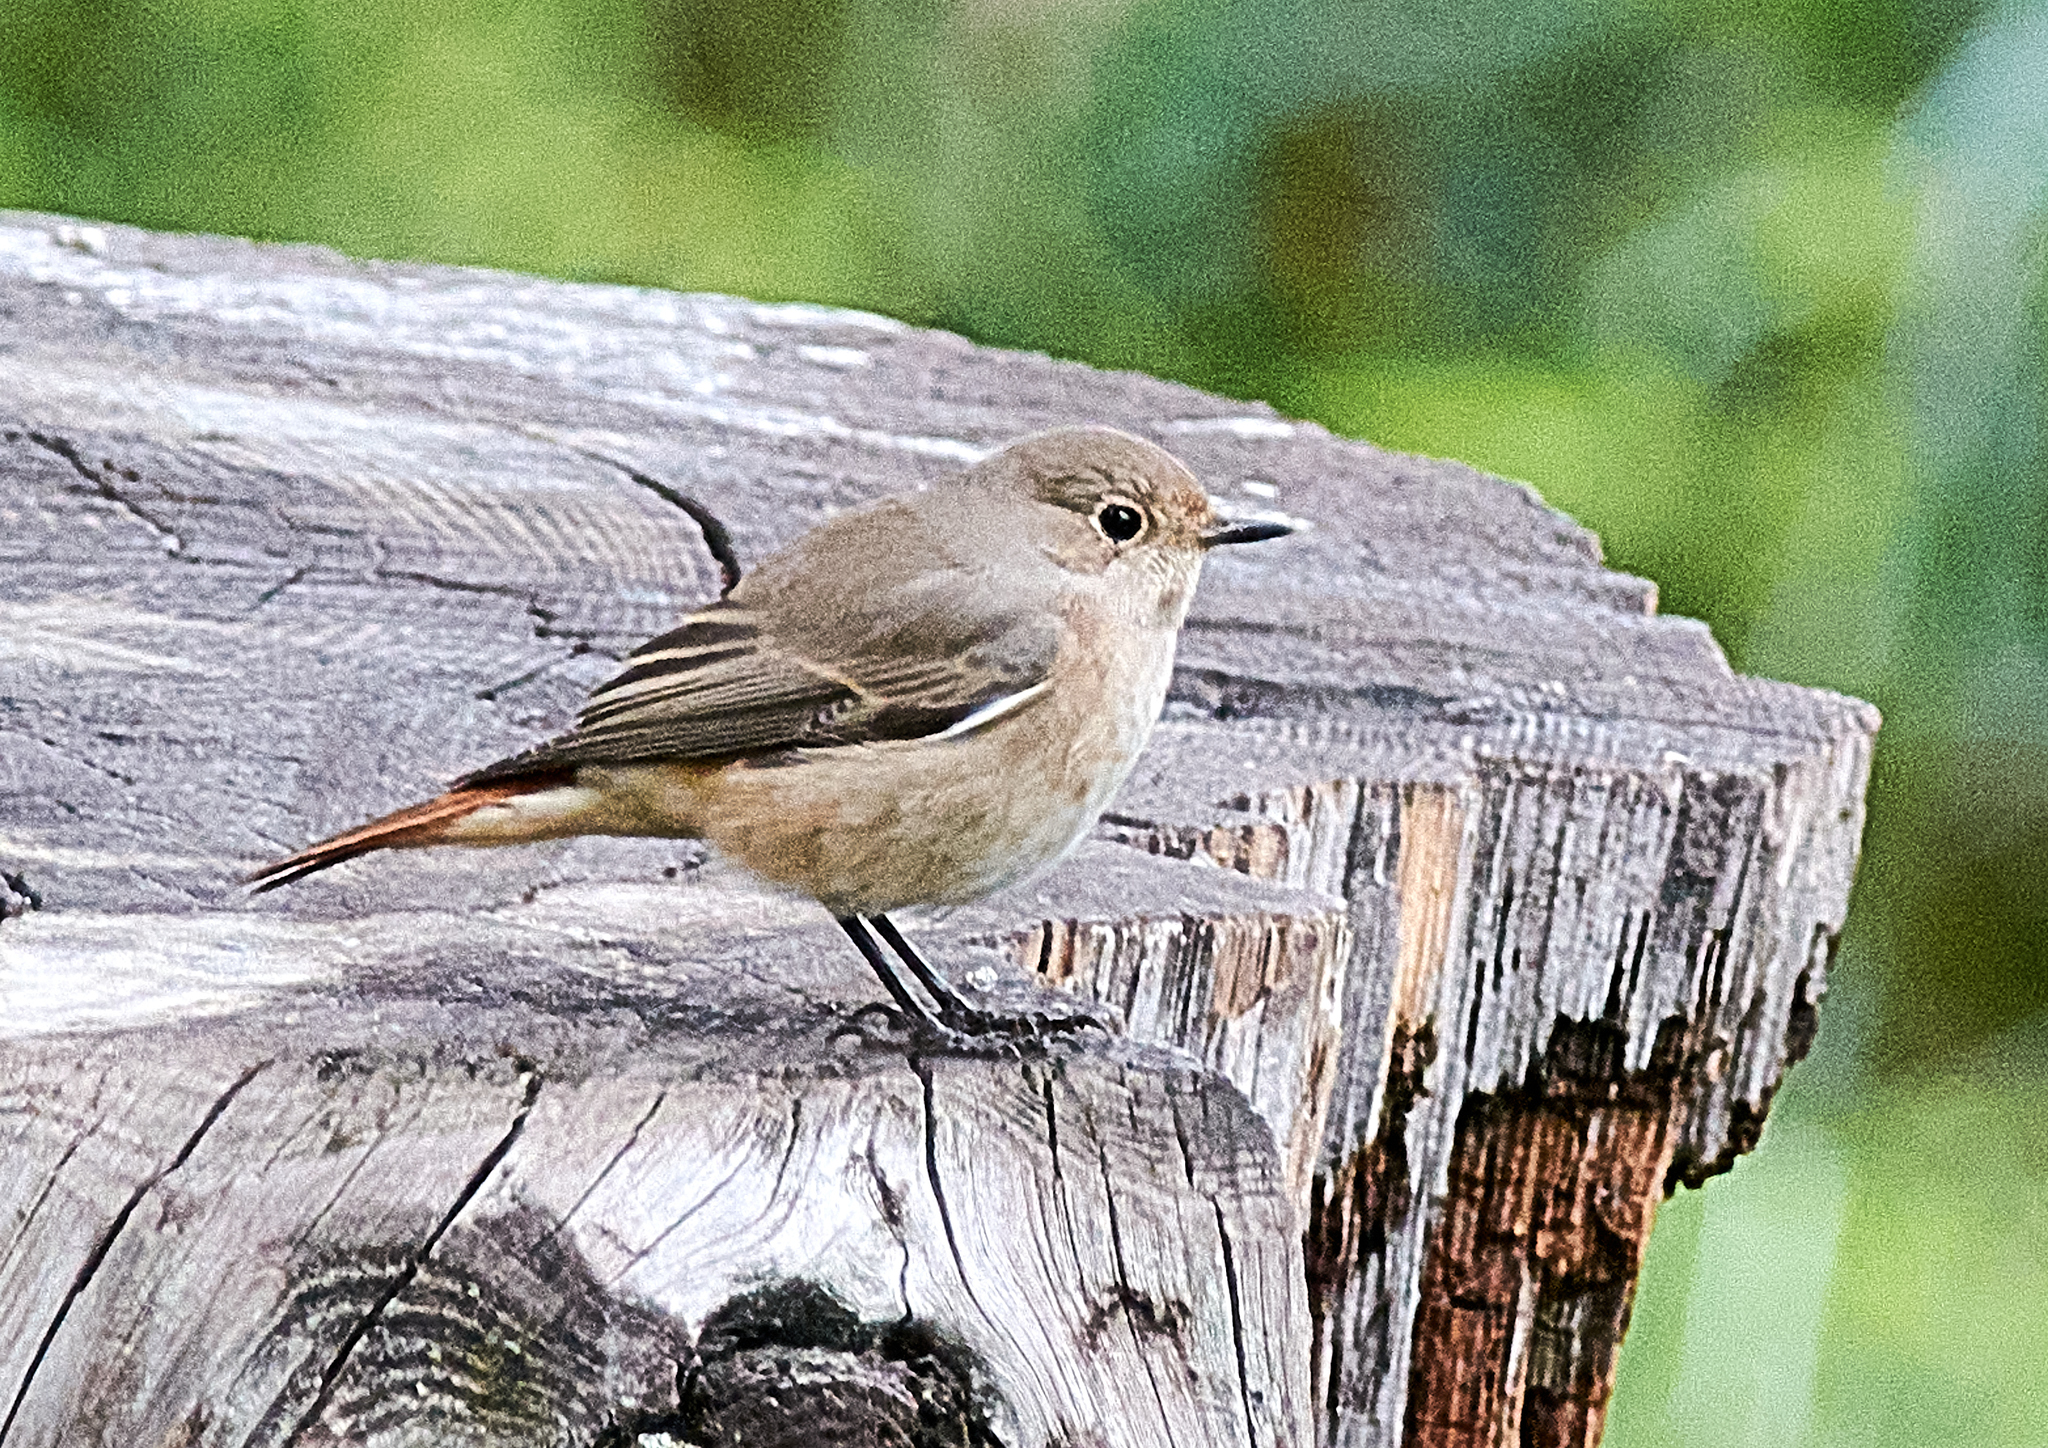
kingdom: Animalia
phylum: Chordata
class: Aves
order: Passeriformes
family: Muscicapidae
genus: Phoenicurus
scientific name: Phoenicurus phoenicurus
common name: Common redstart
